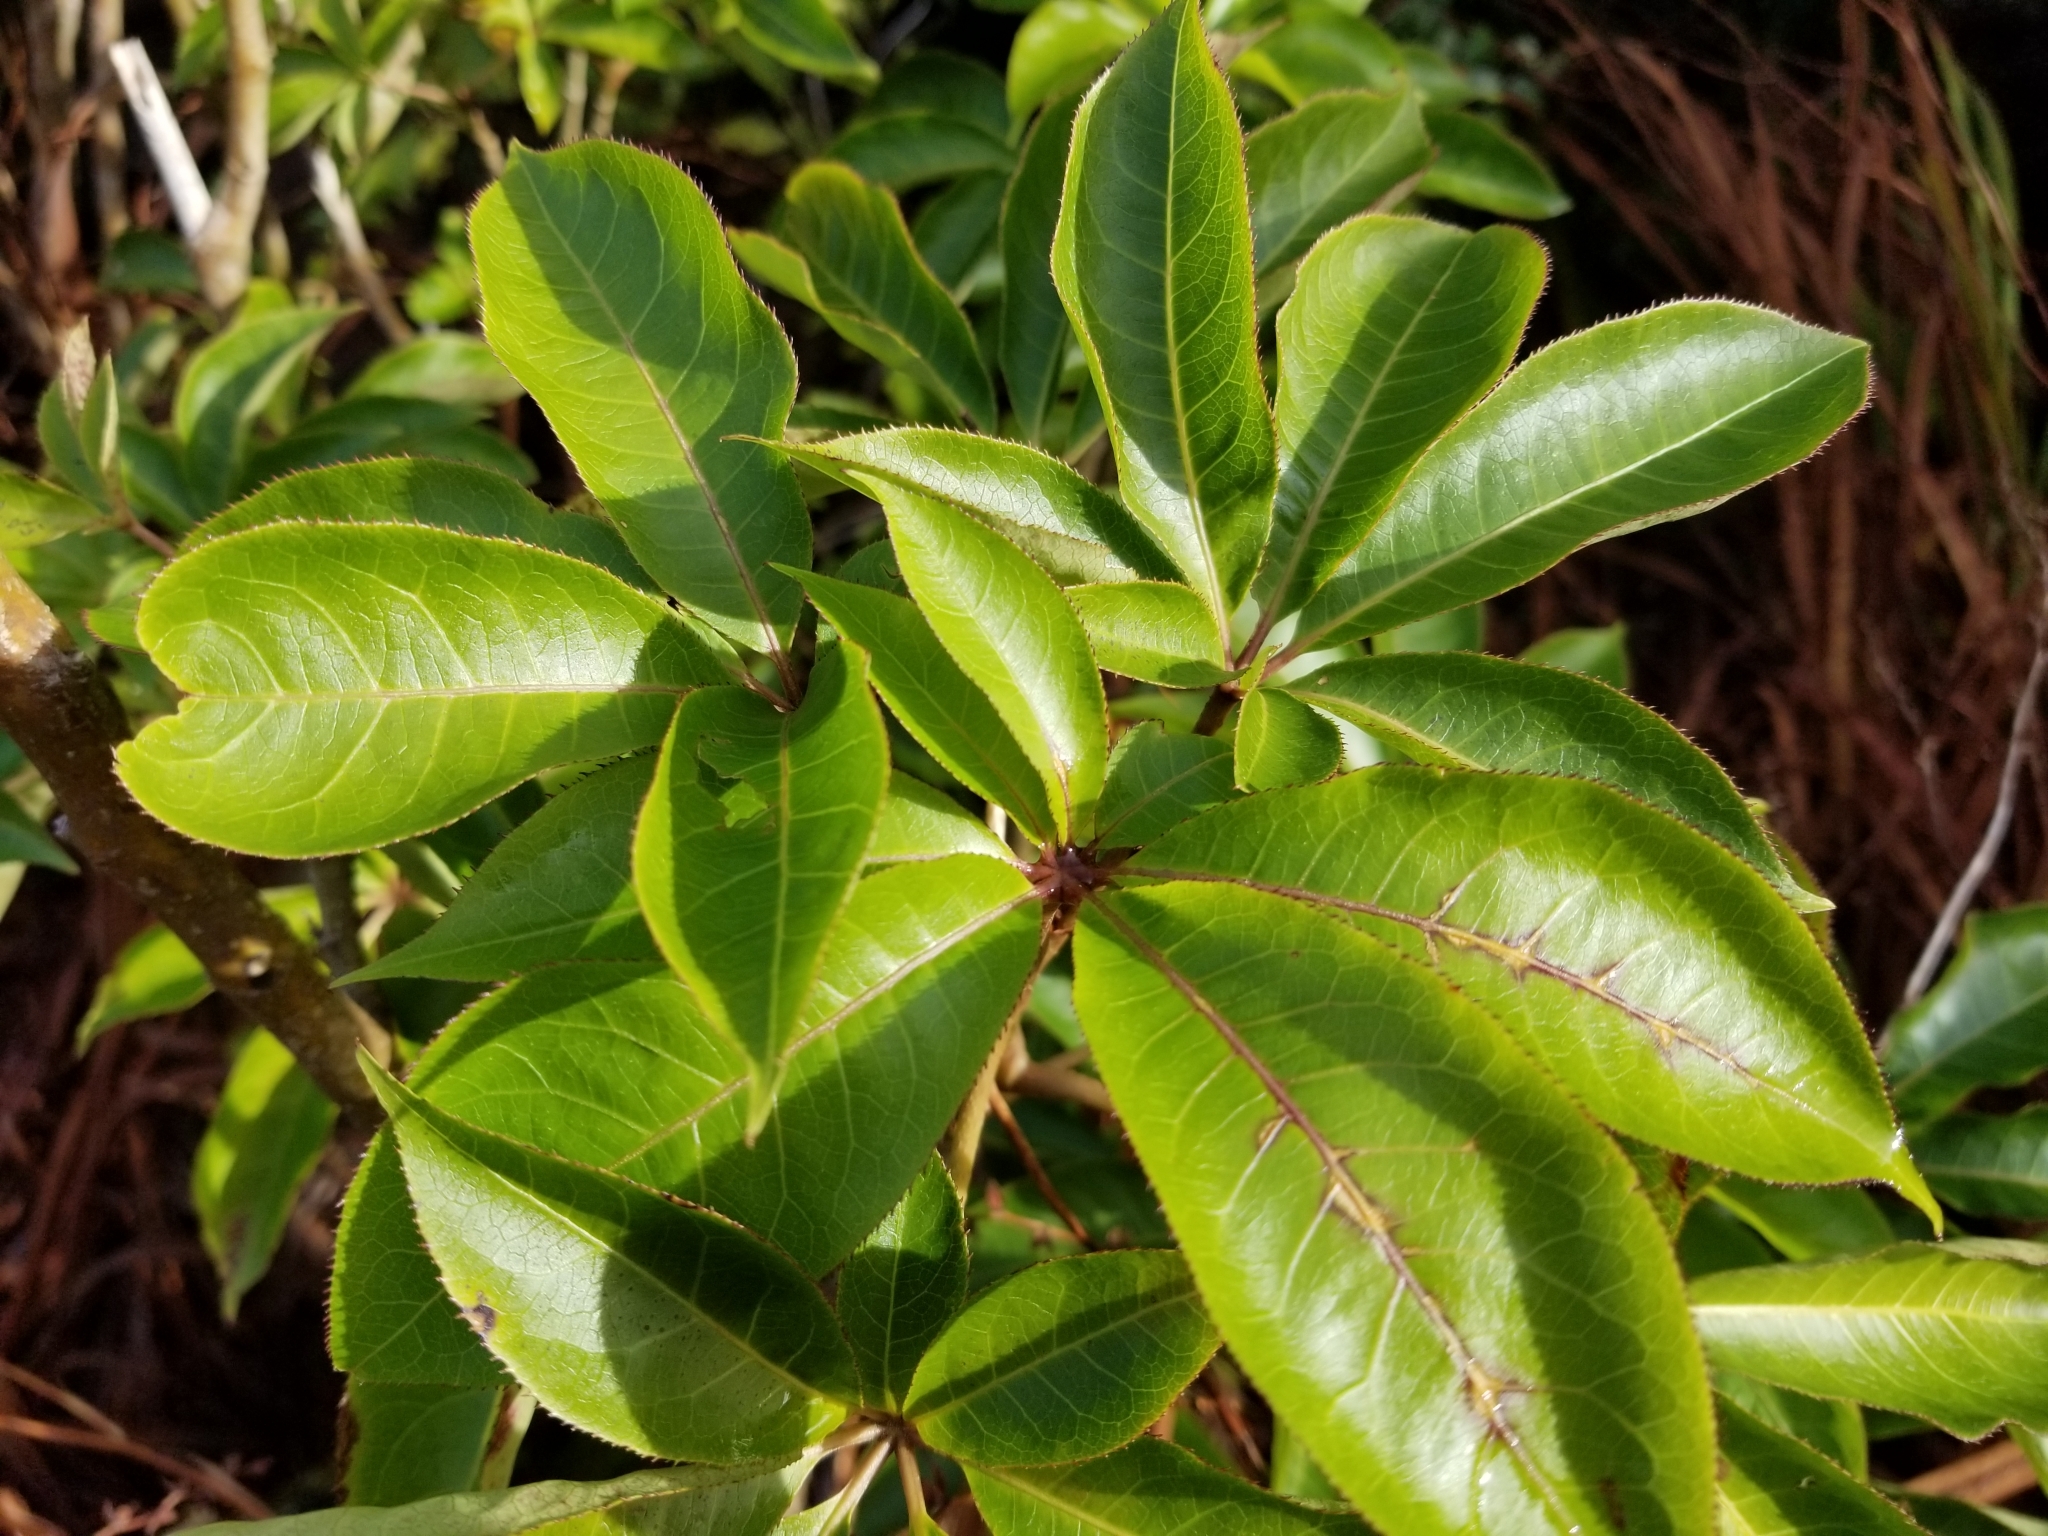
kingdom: Plantae
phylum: Tracheophyta
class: Magnoliopsida
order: Apiales
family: Araliaceae
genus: Schefflera
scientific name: Schefflera digitata
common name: Pate
